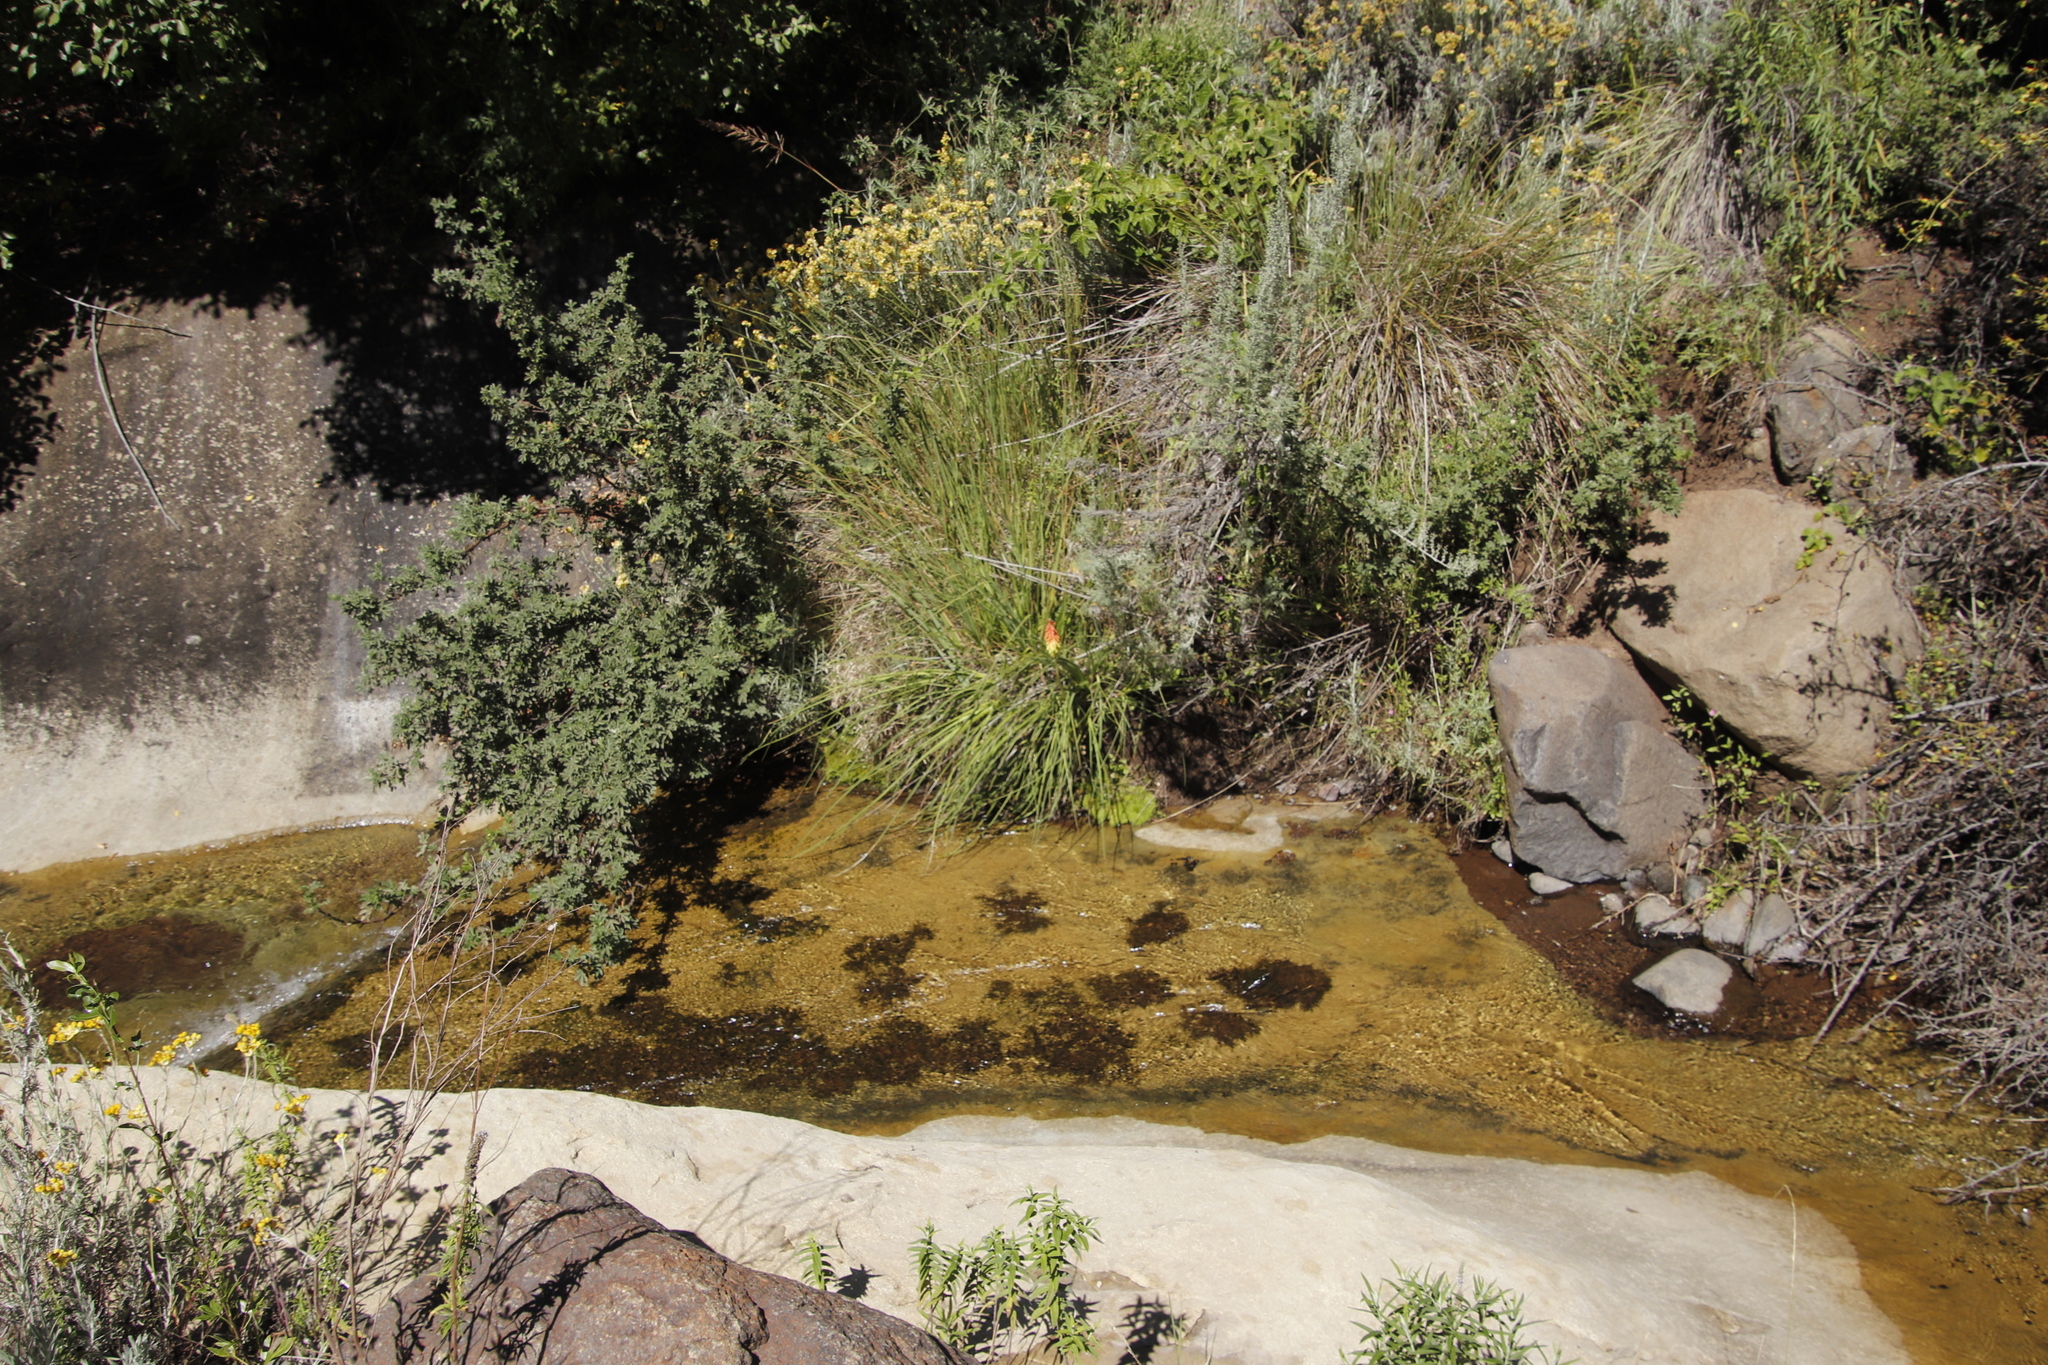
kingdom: Plantae
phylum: Tracheophyta
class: Magnoliopsida
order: Rosales
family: Rosaceae
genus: Leucosidea
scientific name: Leucosidea sericea
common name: Oldwood
